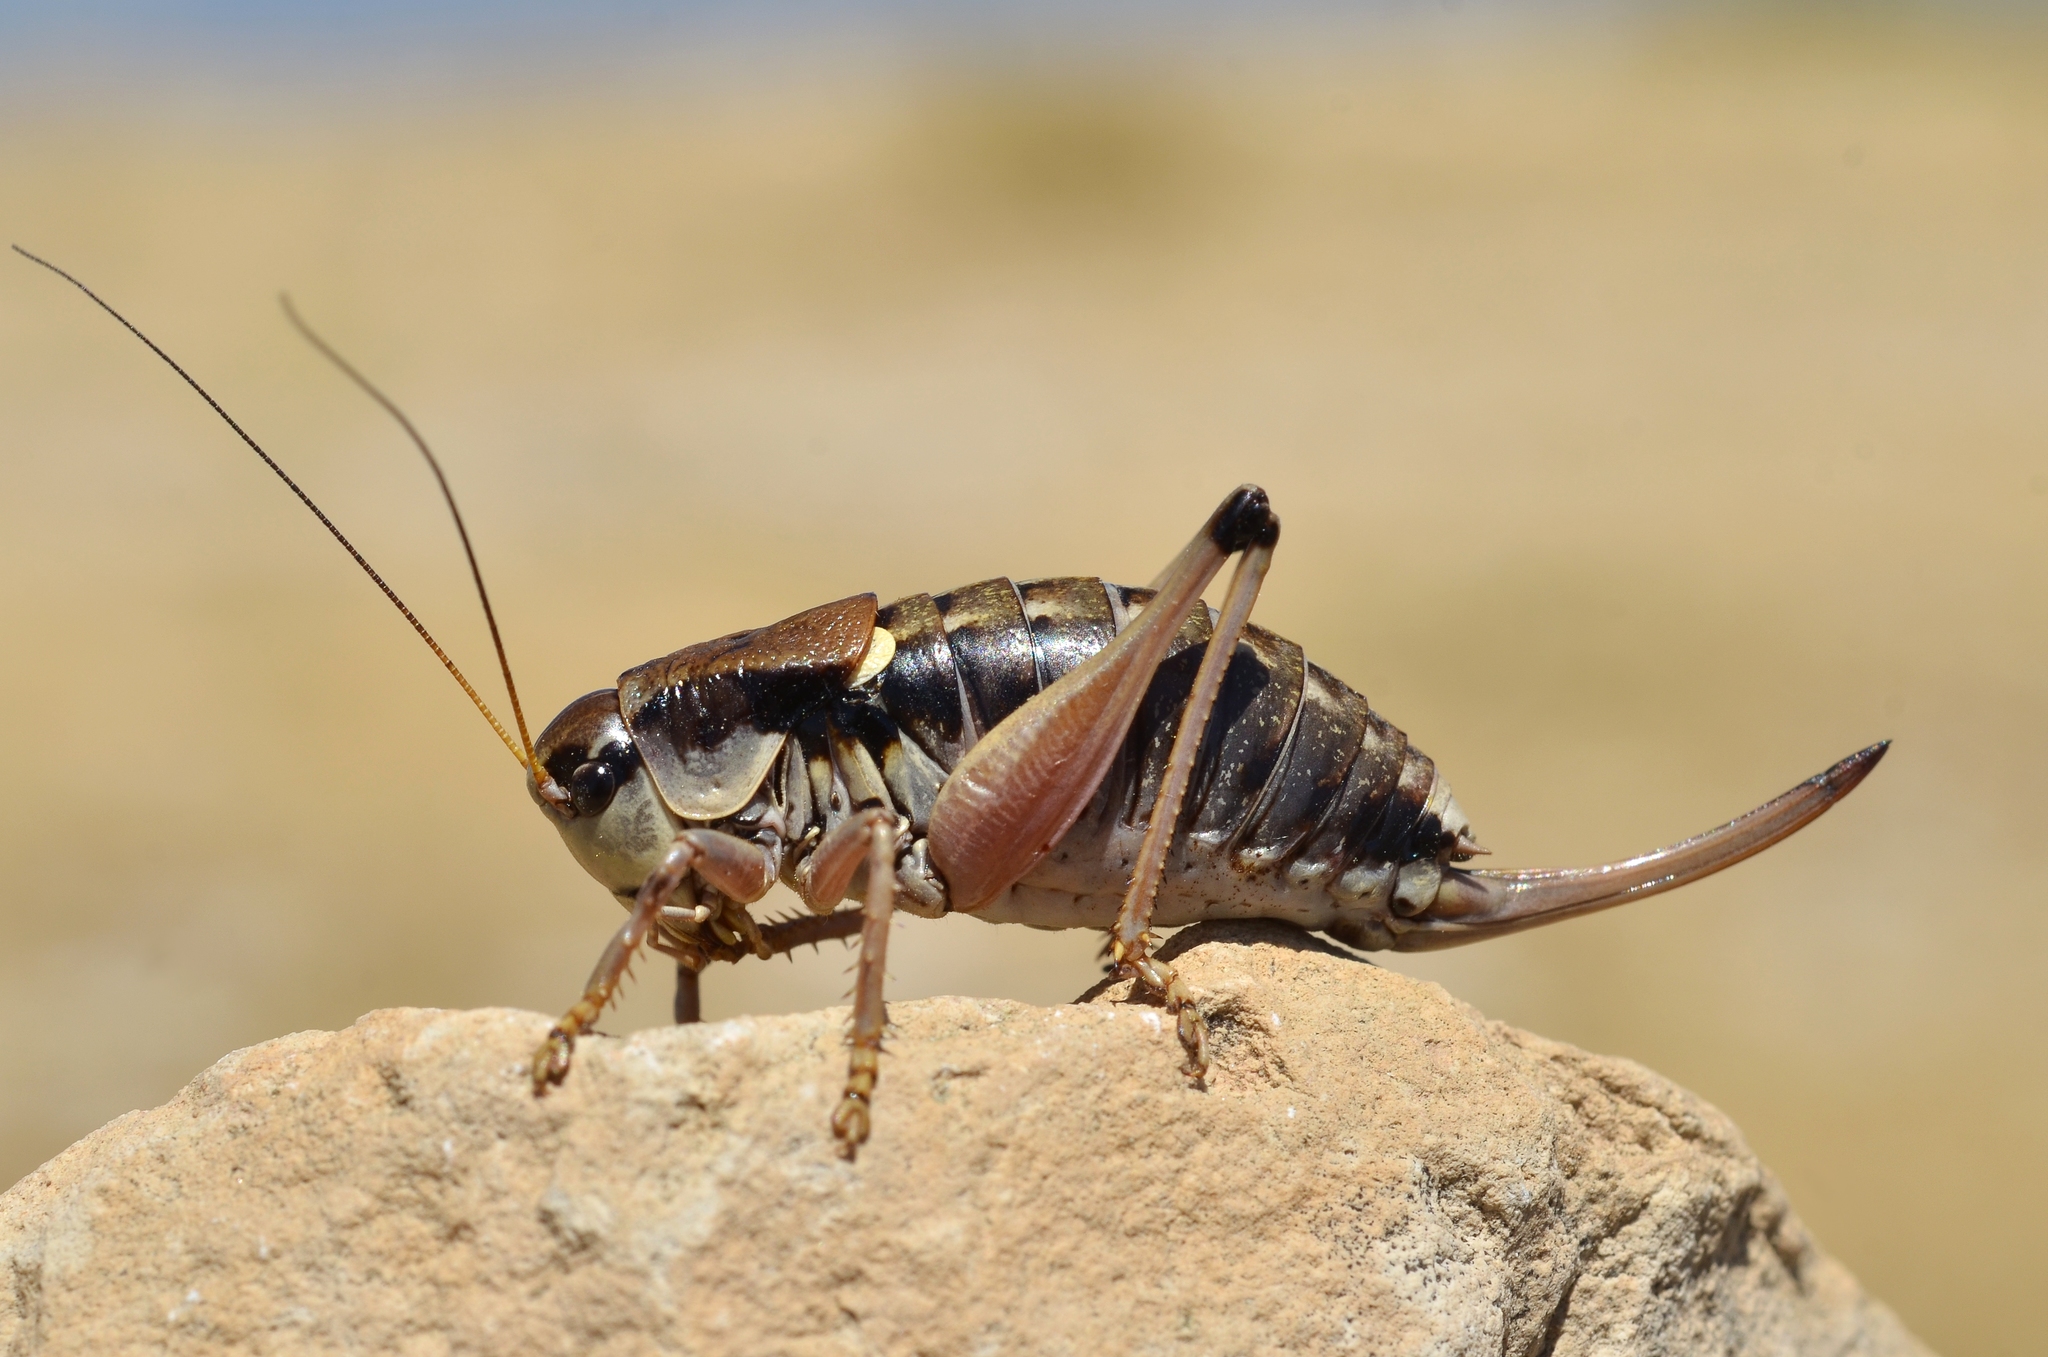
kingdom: Animalia
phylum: Arthropoda
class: Insecta
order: Orthoptera
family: Tettigoniidae
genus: Anonconotus
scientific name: Anonconotus ghilianii
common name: Ghiliani's alpine bush-cricket
